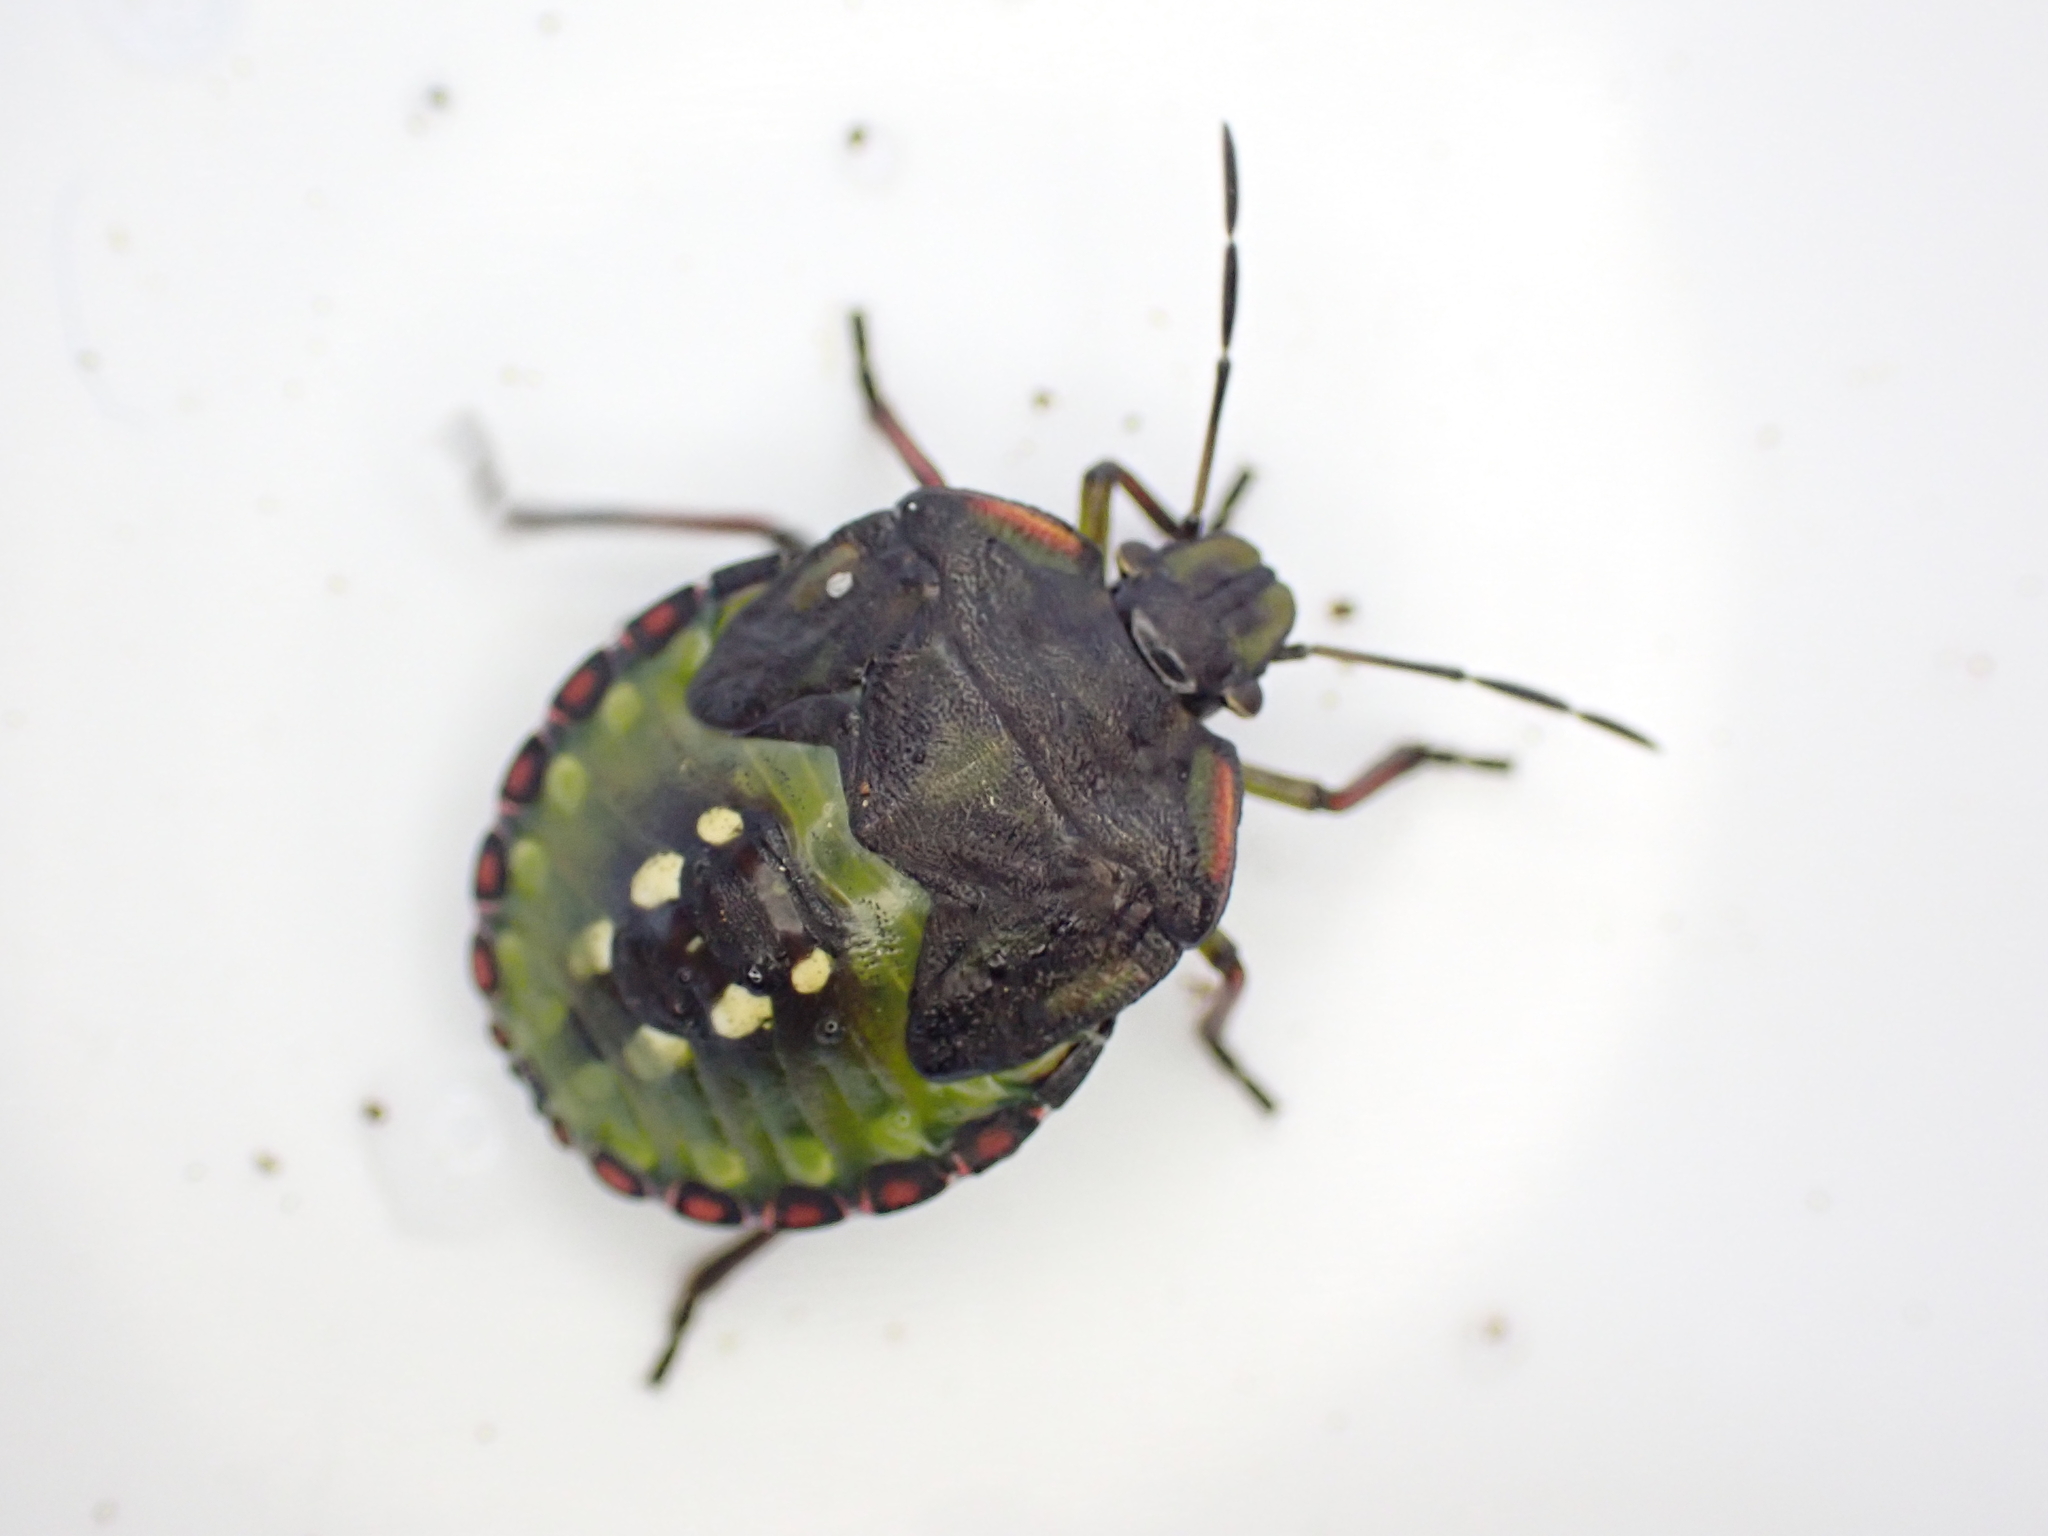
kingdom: Animalia
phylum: Arthropoda
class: Insecta
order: Hemiptera
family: Pentatomidae
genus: Nezara
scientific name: Nezara viridula
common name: Southern green stink bug
